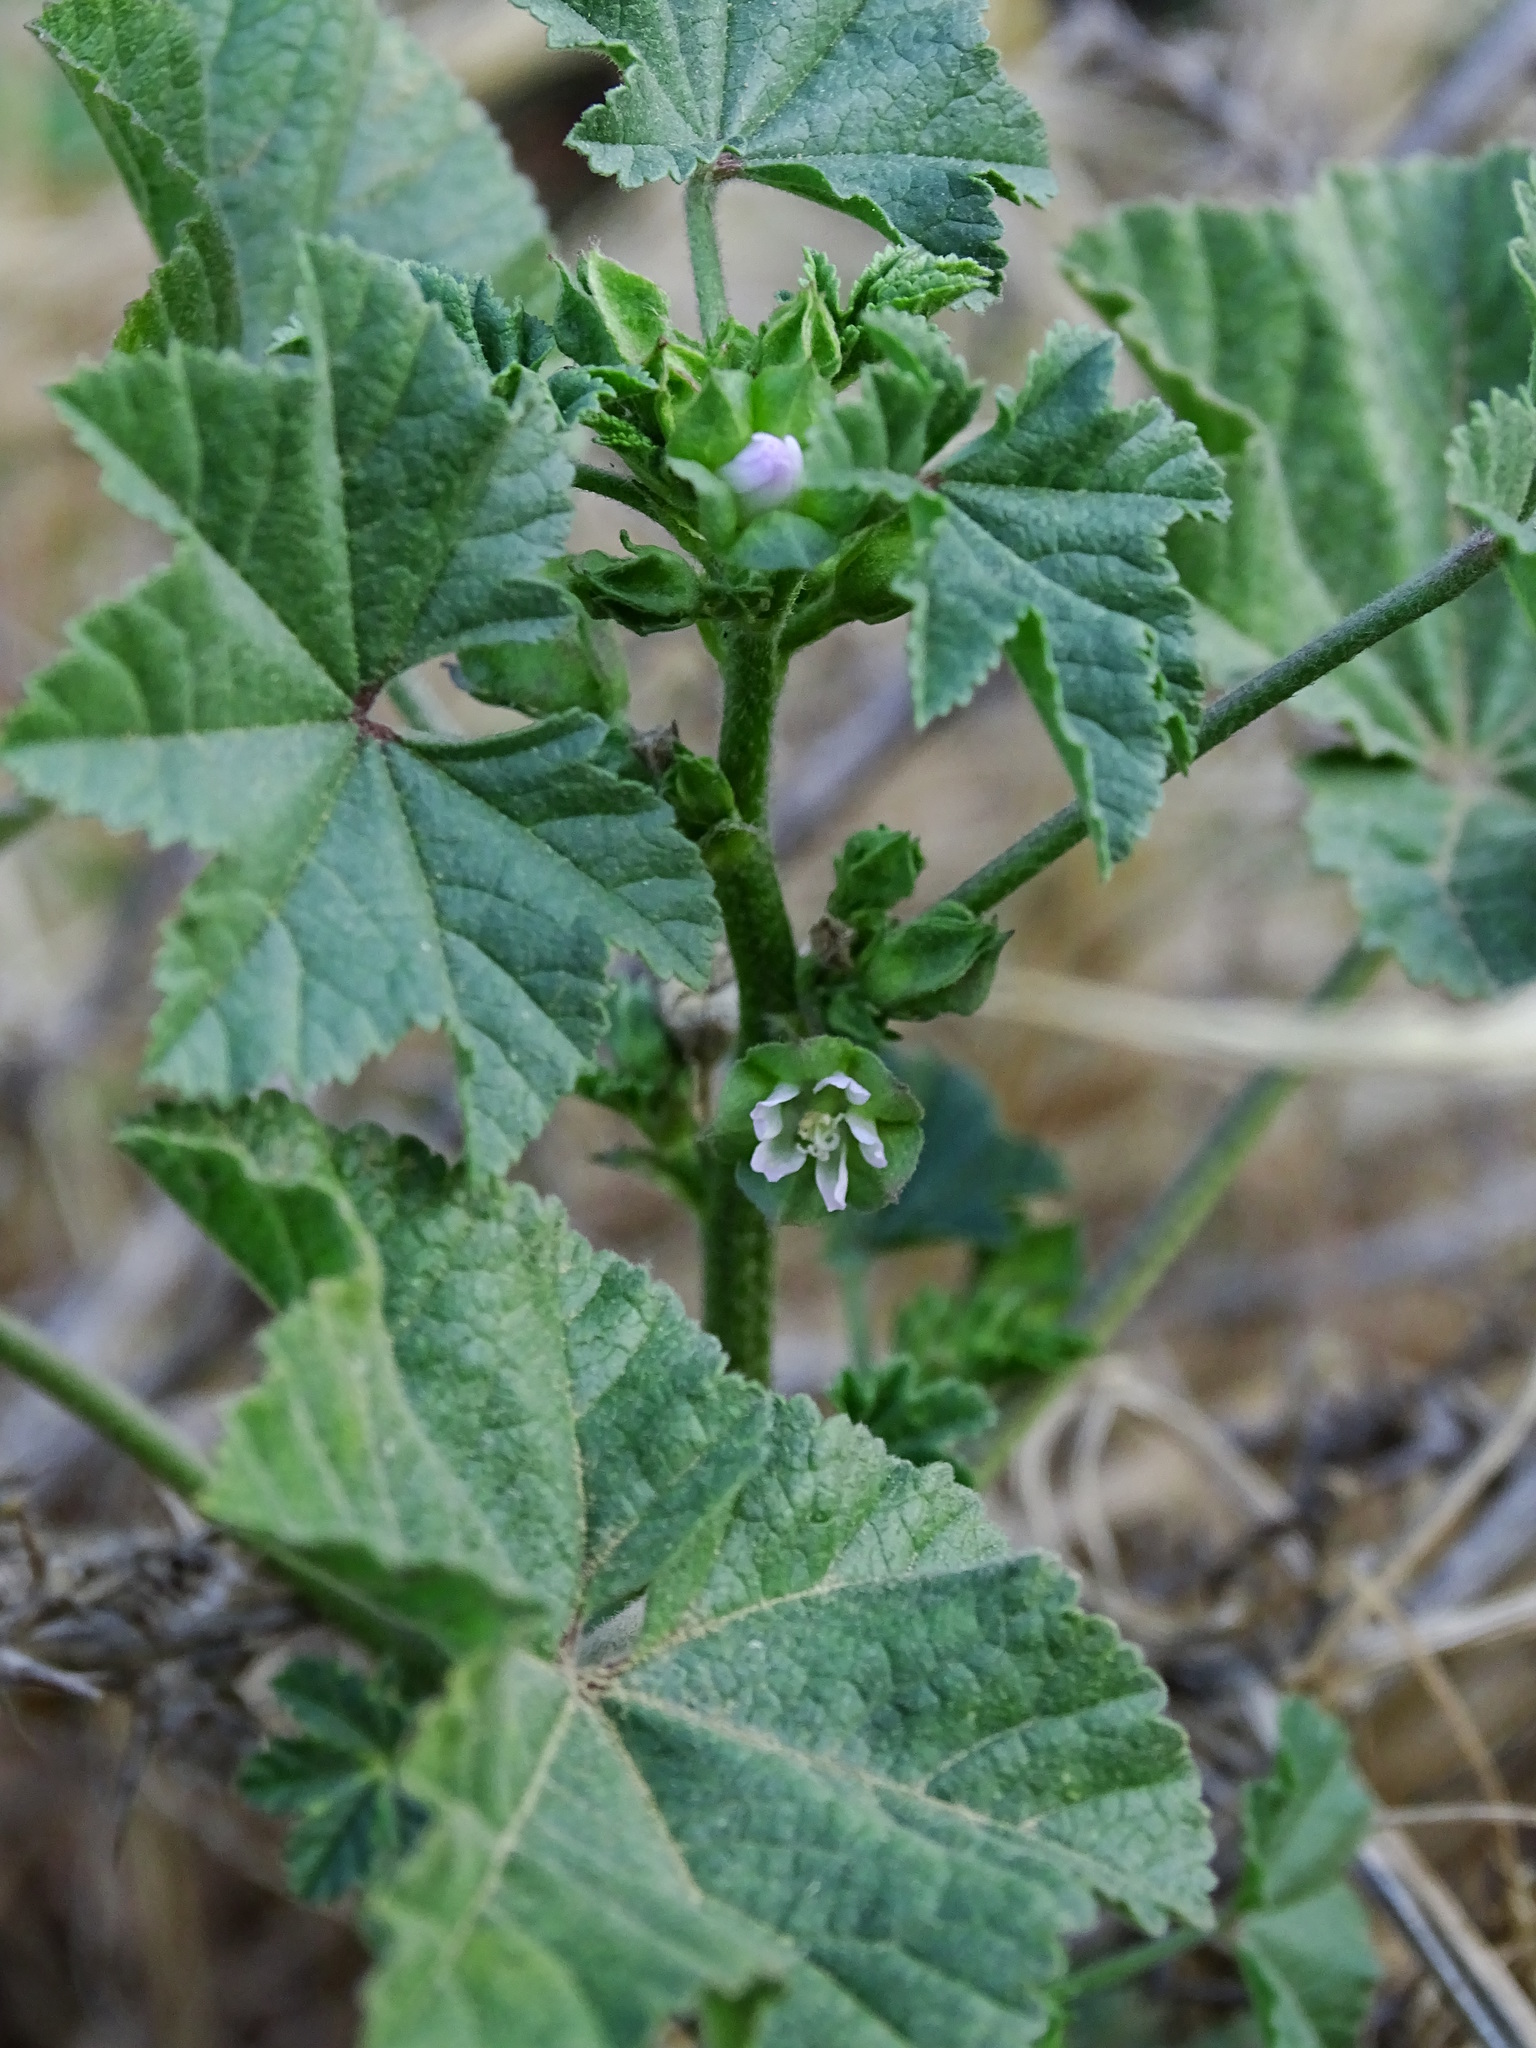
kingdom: Plantae
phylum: Tracheophyta
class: Magnoliopsida
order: Malvales
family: Malvaceae
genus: Malva
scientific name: Malva parviflora
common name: Least mallow
